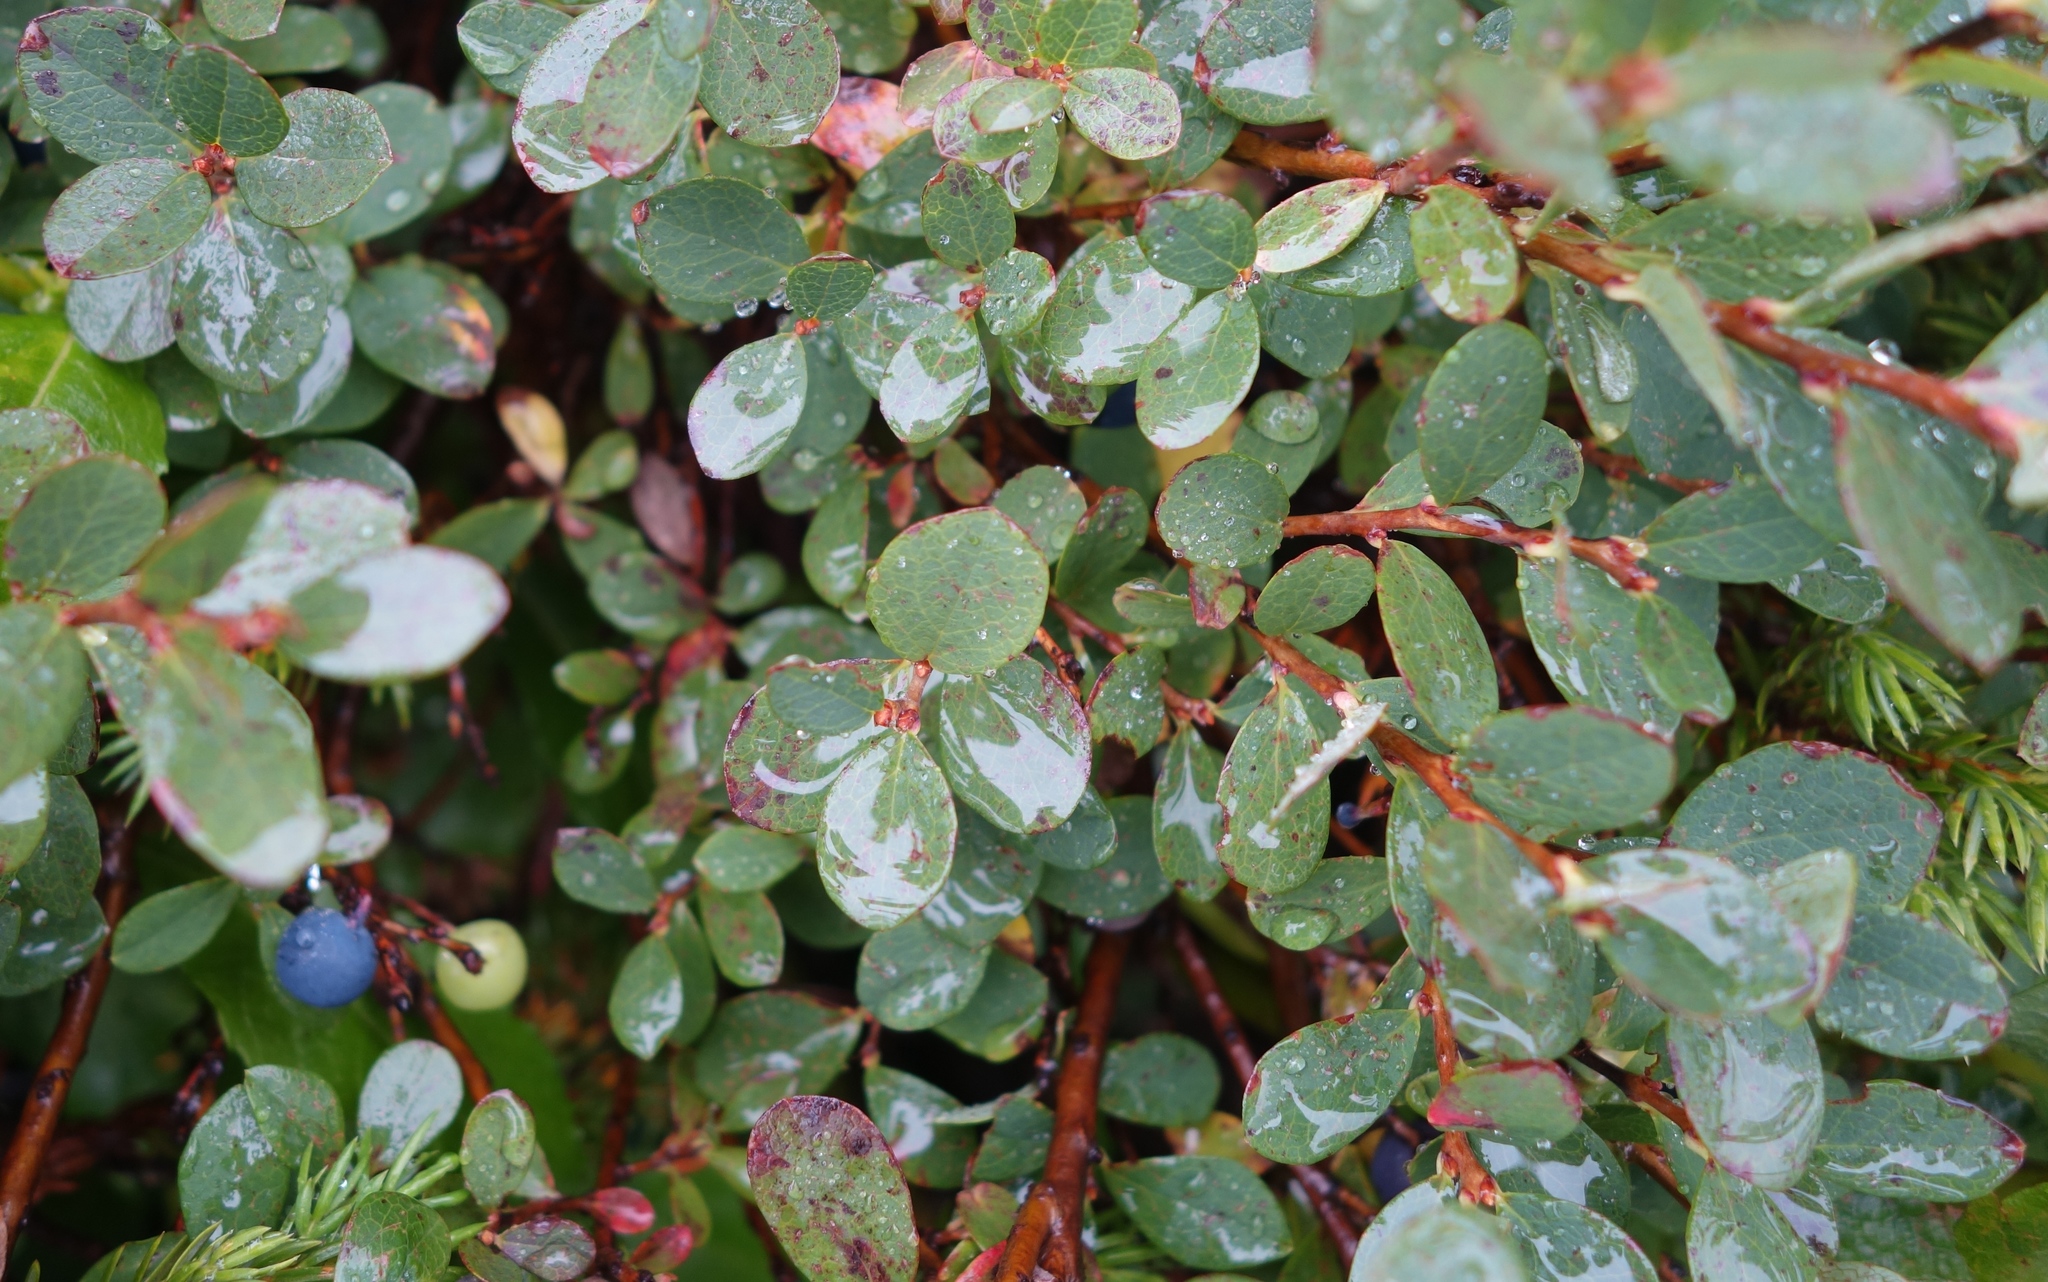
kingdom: Plantae
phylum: Tracheophyta
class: Magnoliopsida
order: Ericales
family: Ericaceae
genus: Vaccinium
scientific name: Vaccinium uliginosum
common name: Bog bilberry
